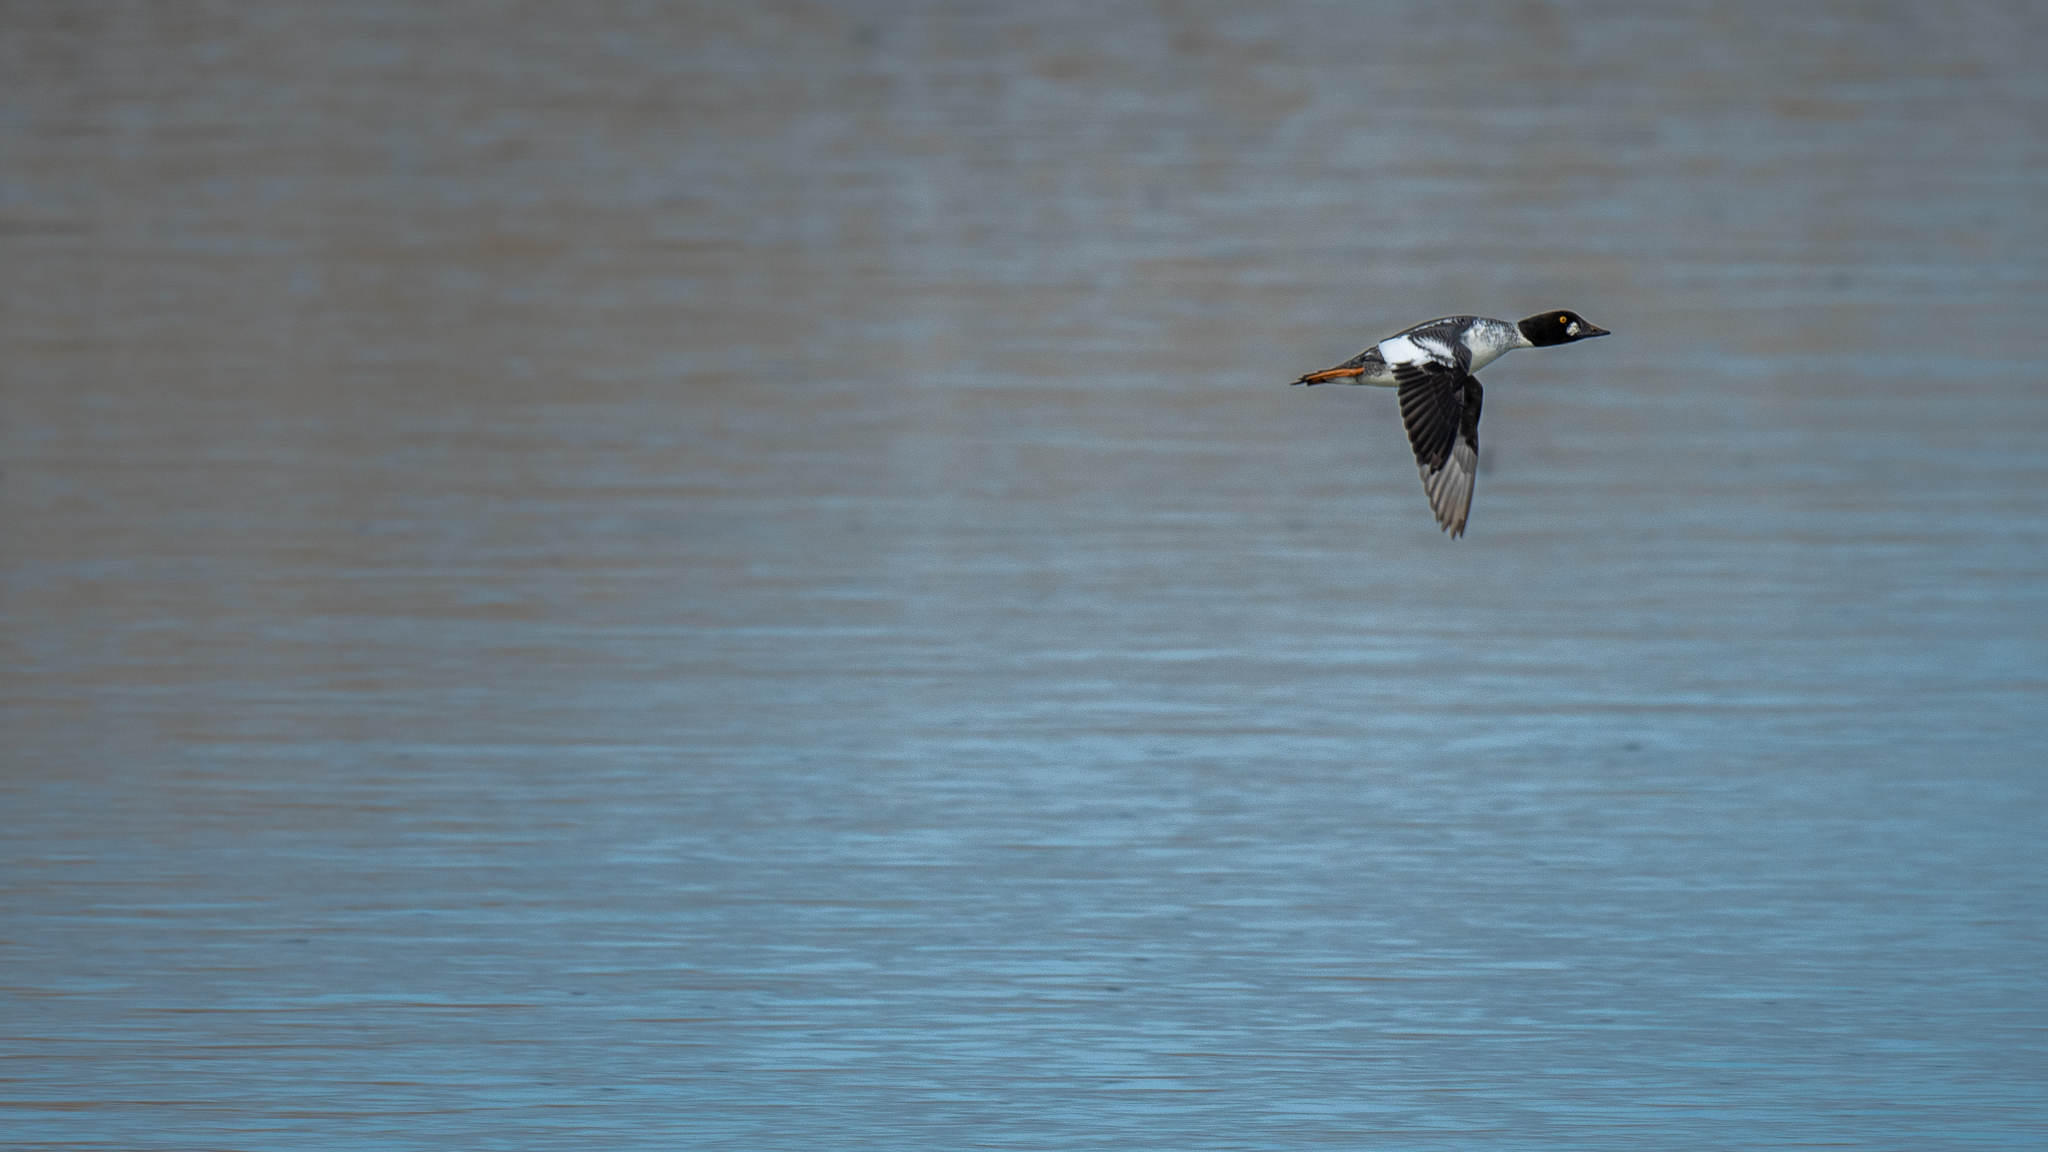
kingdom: Animalia
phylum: Chordata
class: Aves
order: Anseriformes
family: Anatidae
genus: Bucephala
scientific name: Bucephala clangula
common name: Common goldeneye
